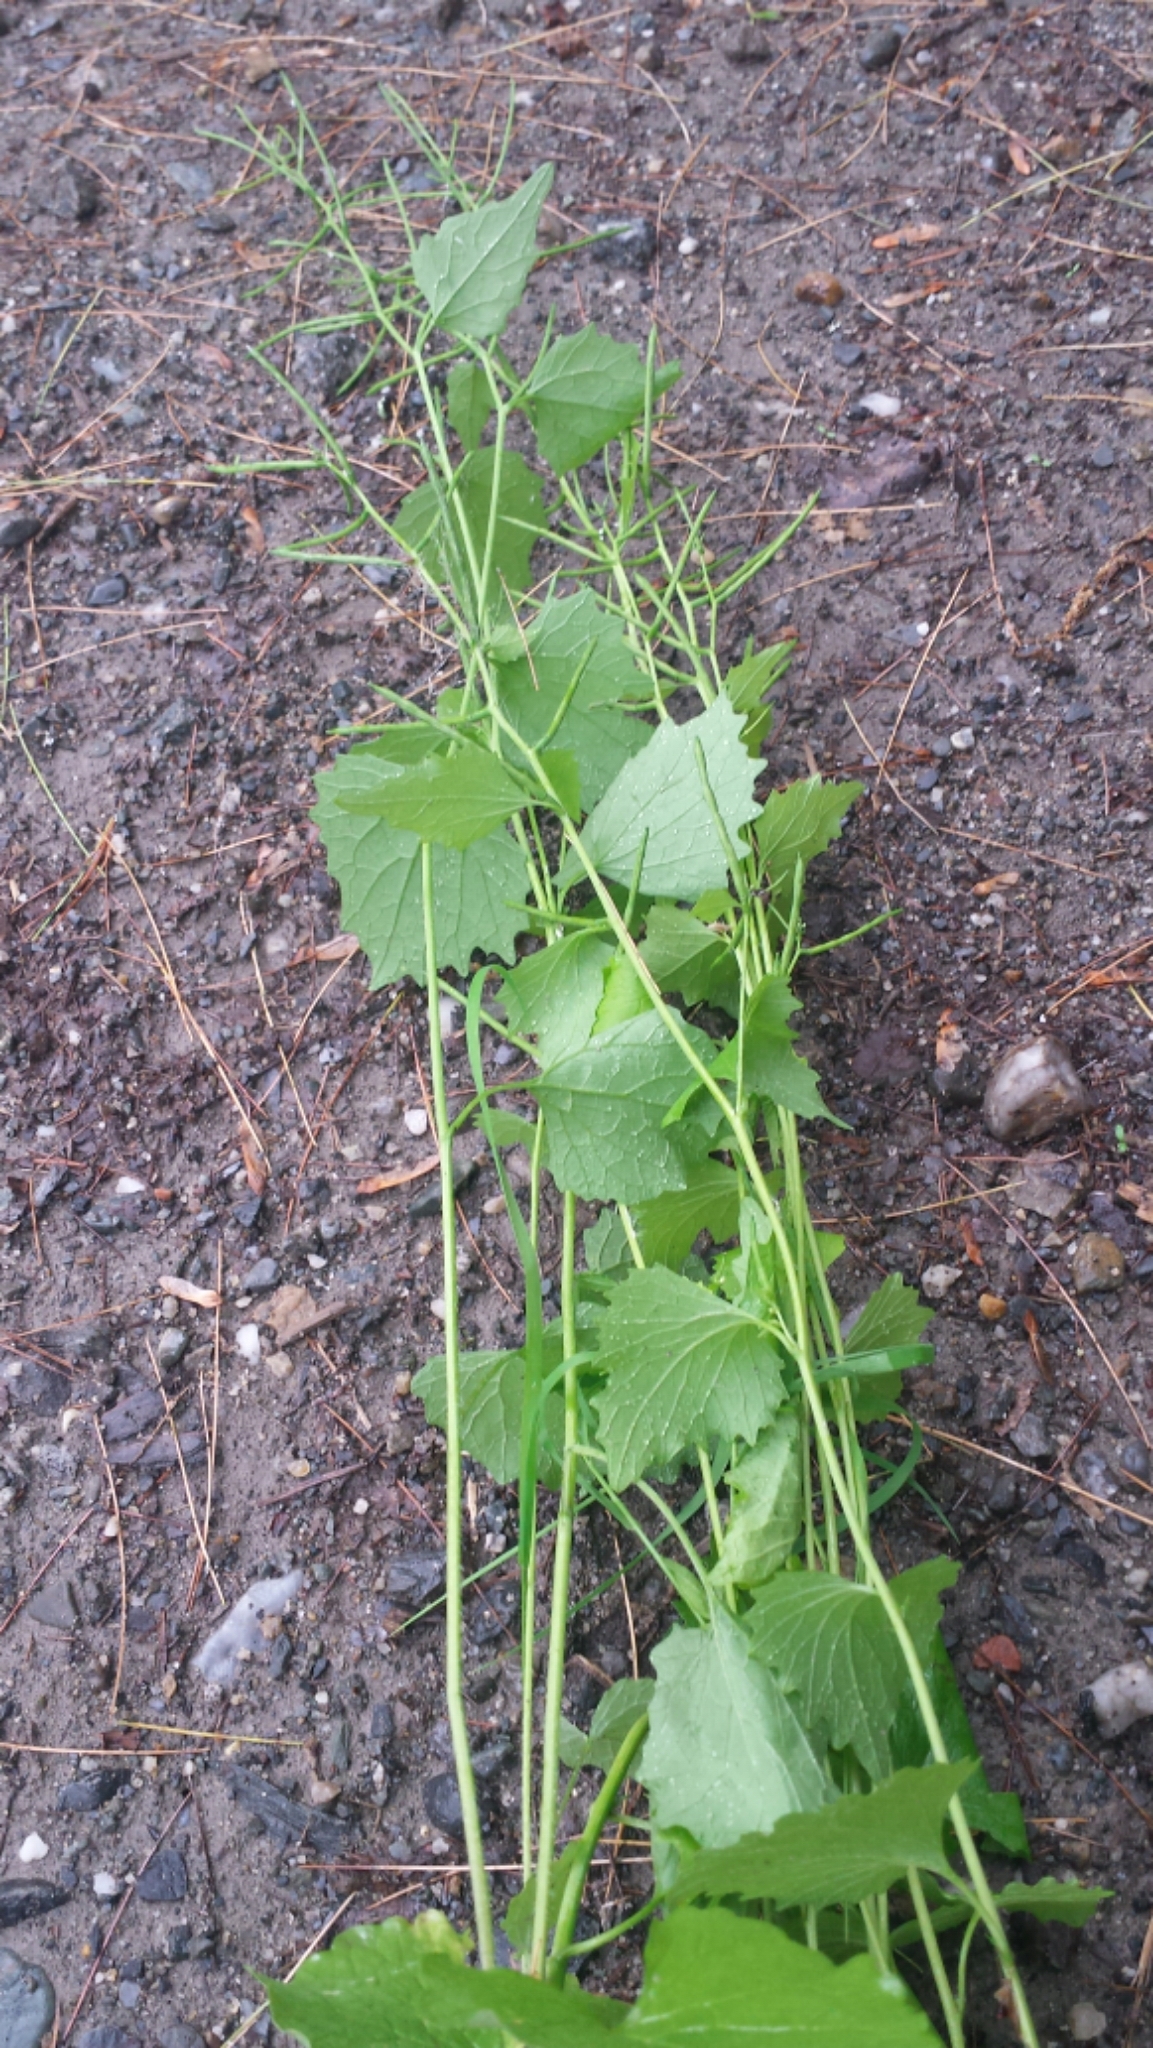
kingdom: Plantae
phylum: Tracheophyta
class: Magnoliopsida
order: Brassicales
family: Brassicaceae
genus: Alliaria
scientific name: Alliaria petiolata
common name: Garlic mustard
